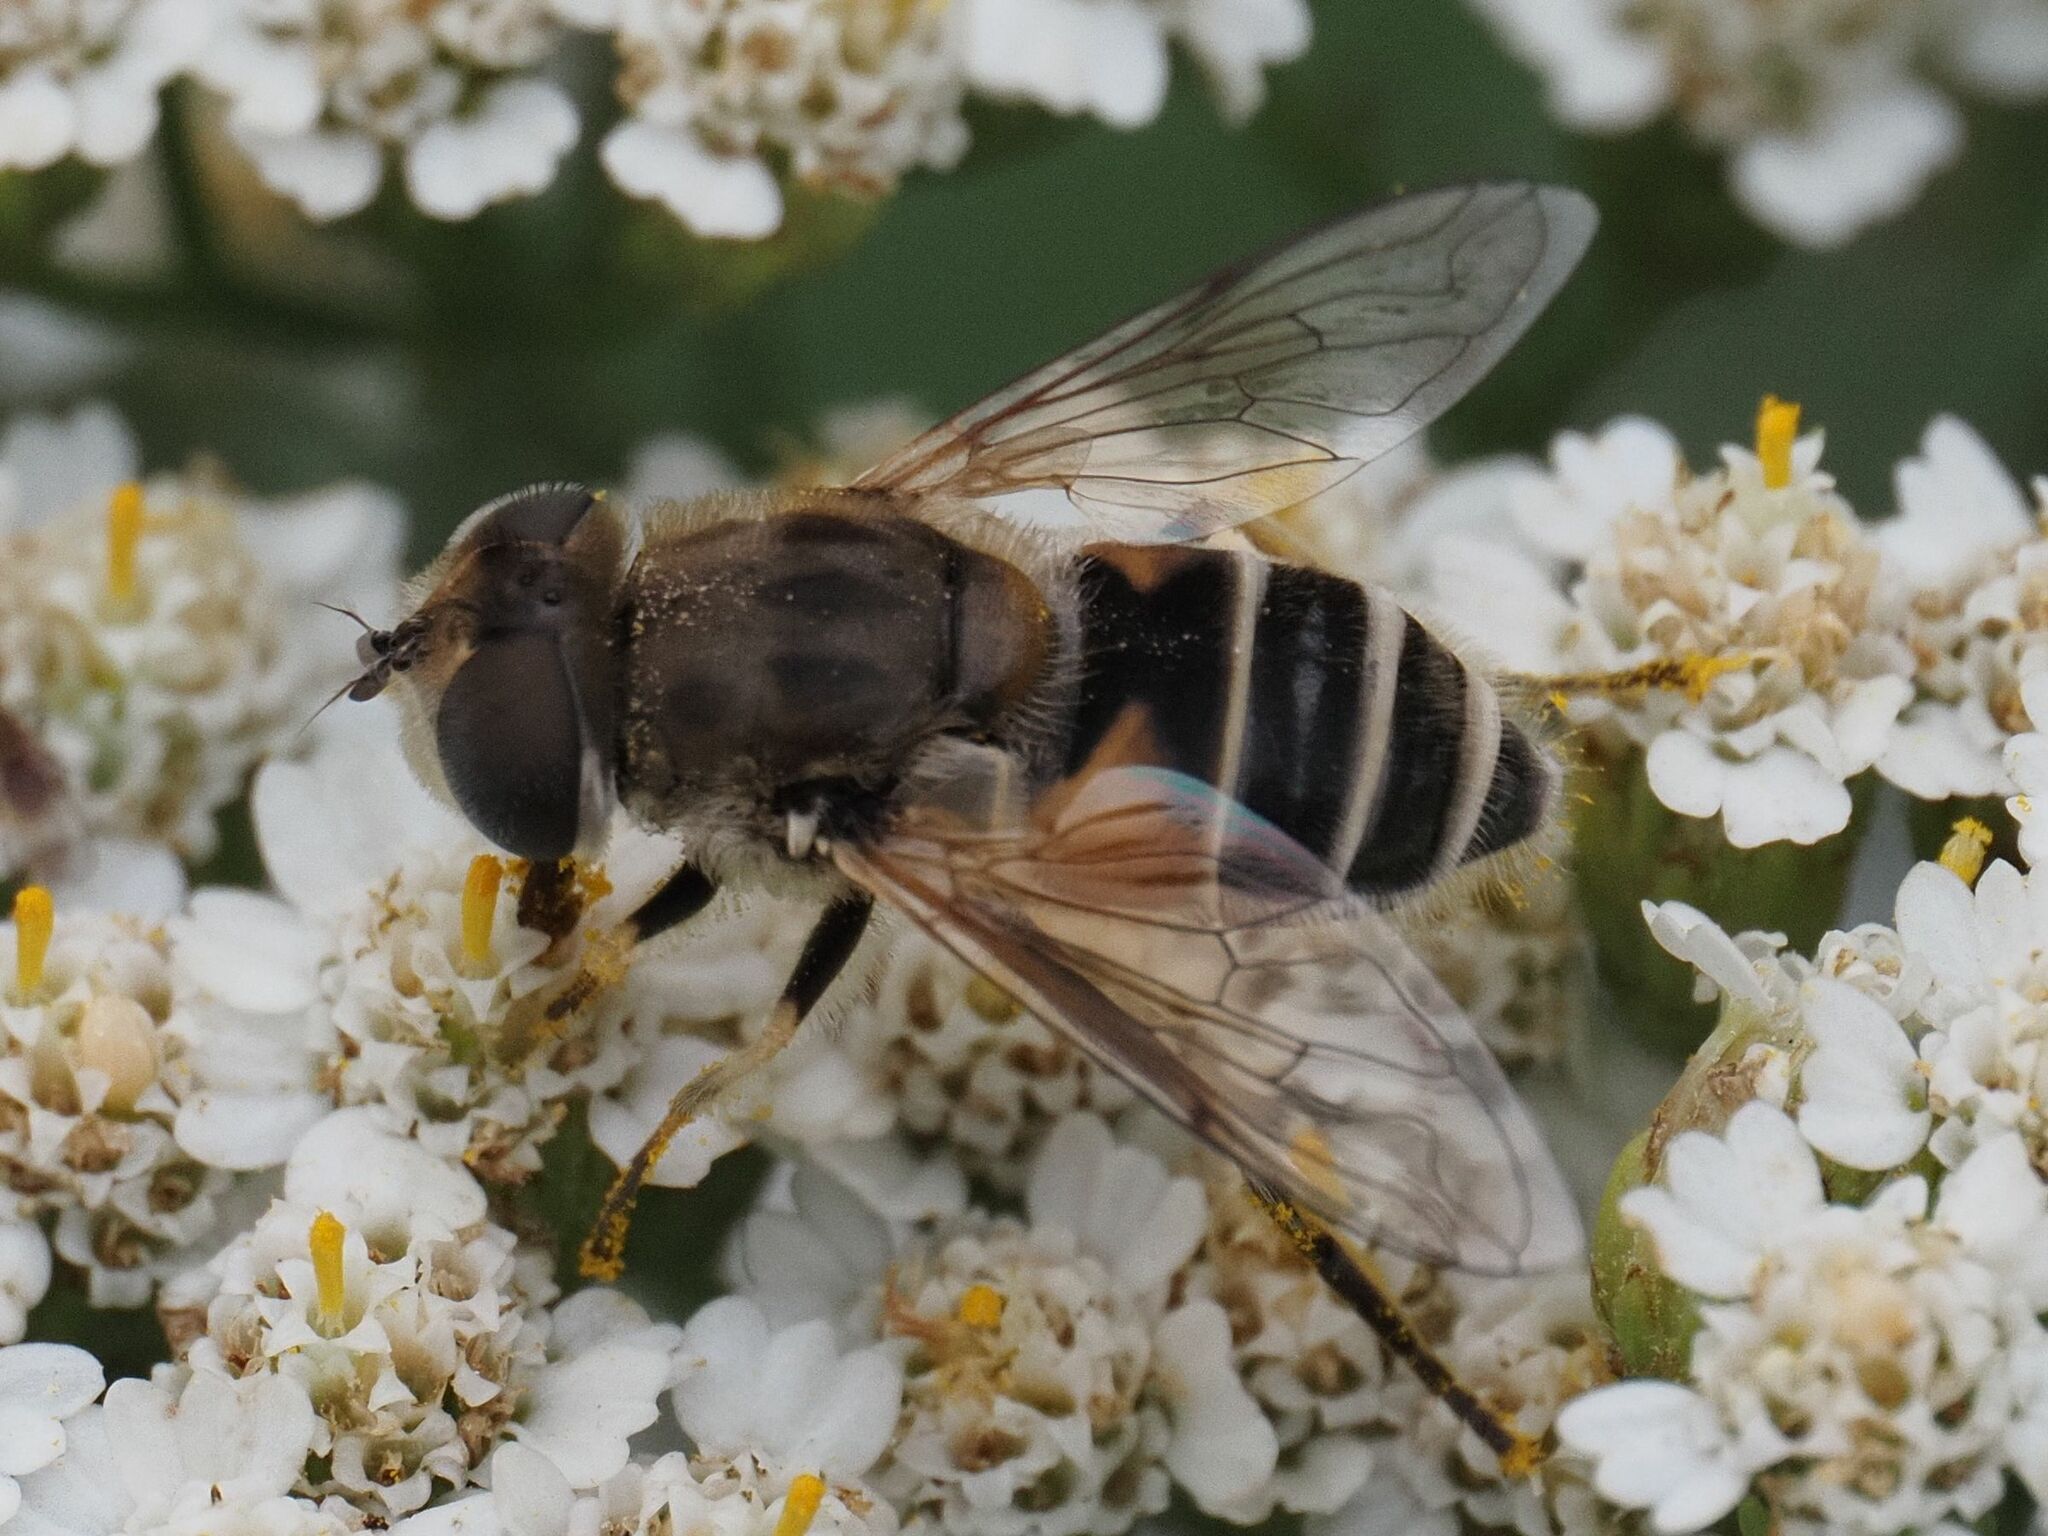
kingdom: Animalia
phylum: Arthropoda
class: Insecta
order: Diptera
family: Syrphidae
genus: Eristalis
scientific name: Eristalis arbustorum
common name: Hover fly
